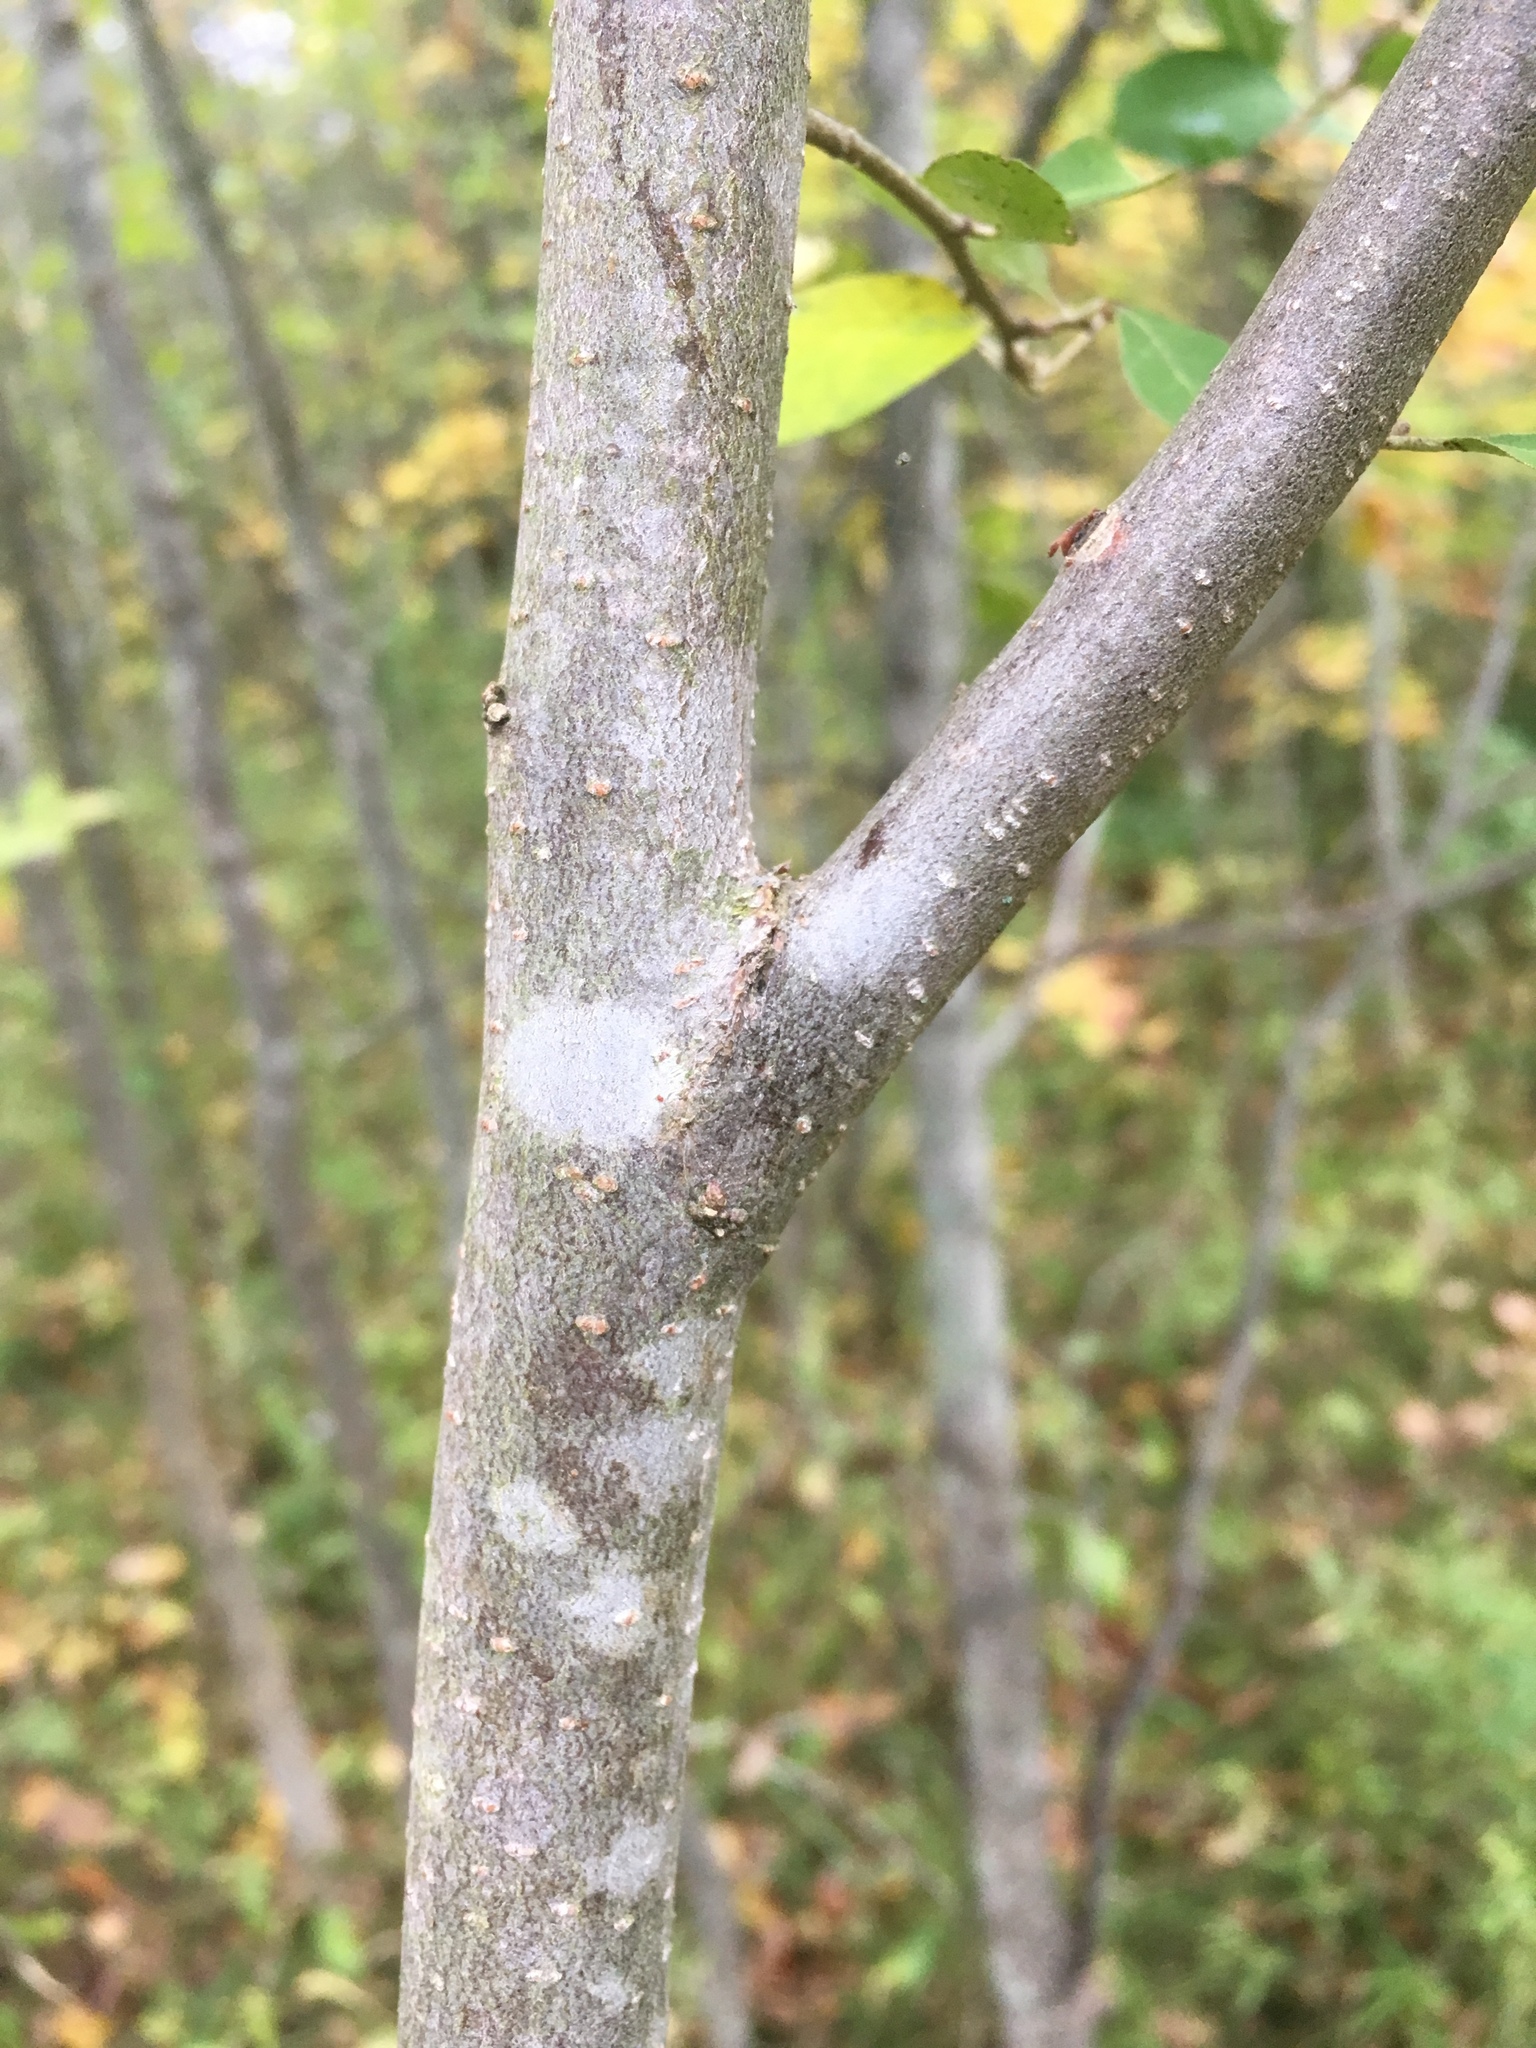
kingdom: Plantae
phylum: Tracheophyta
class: Magnoliopsida
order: Rosales
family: Elaeagnaceae
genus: Elaeagnus
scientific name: Elaeagnus umbellata
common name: Autumn olive
